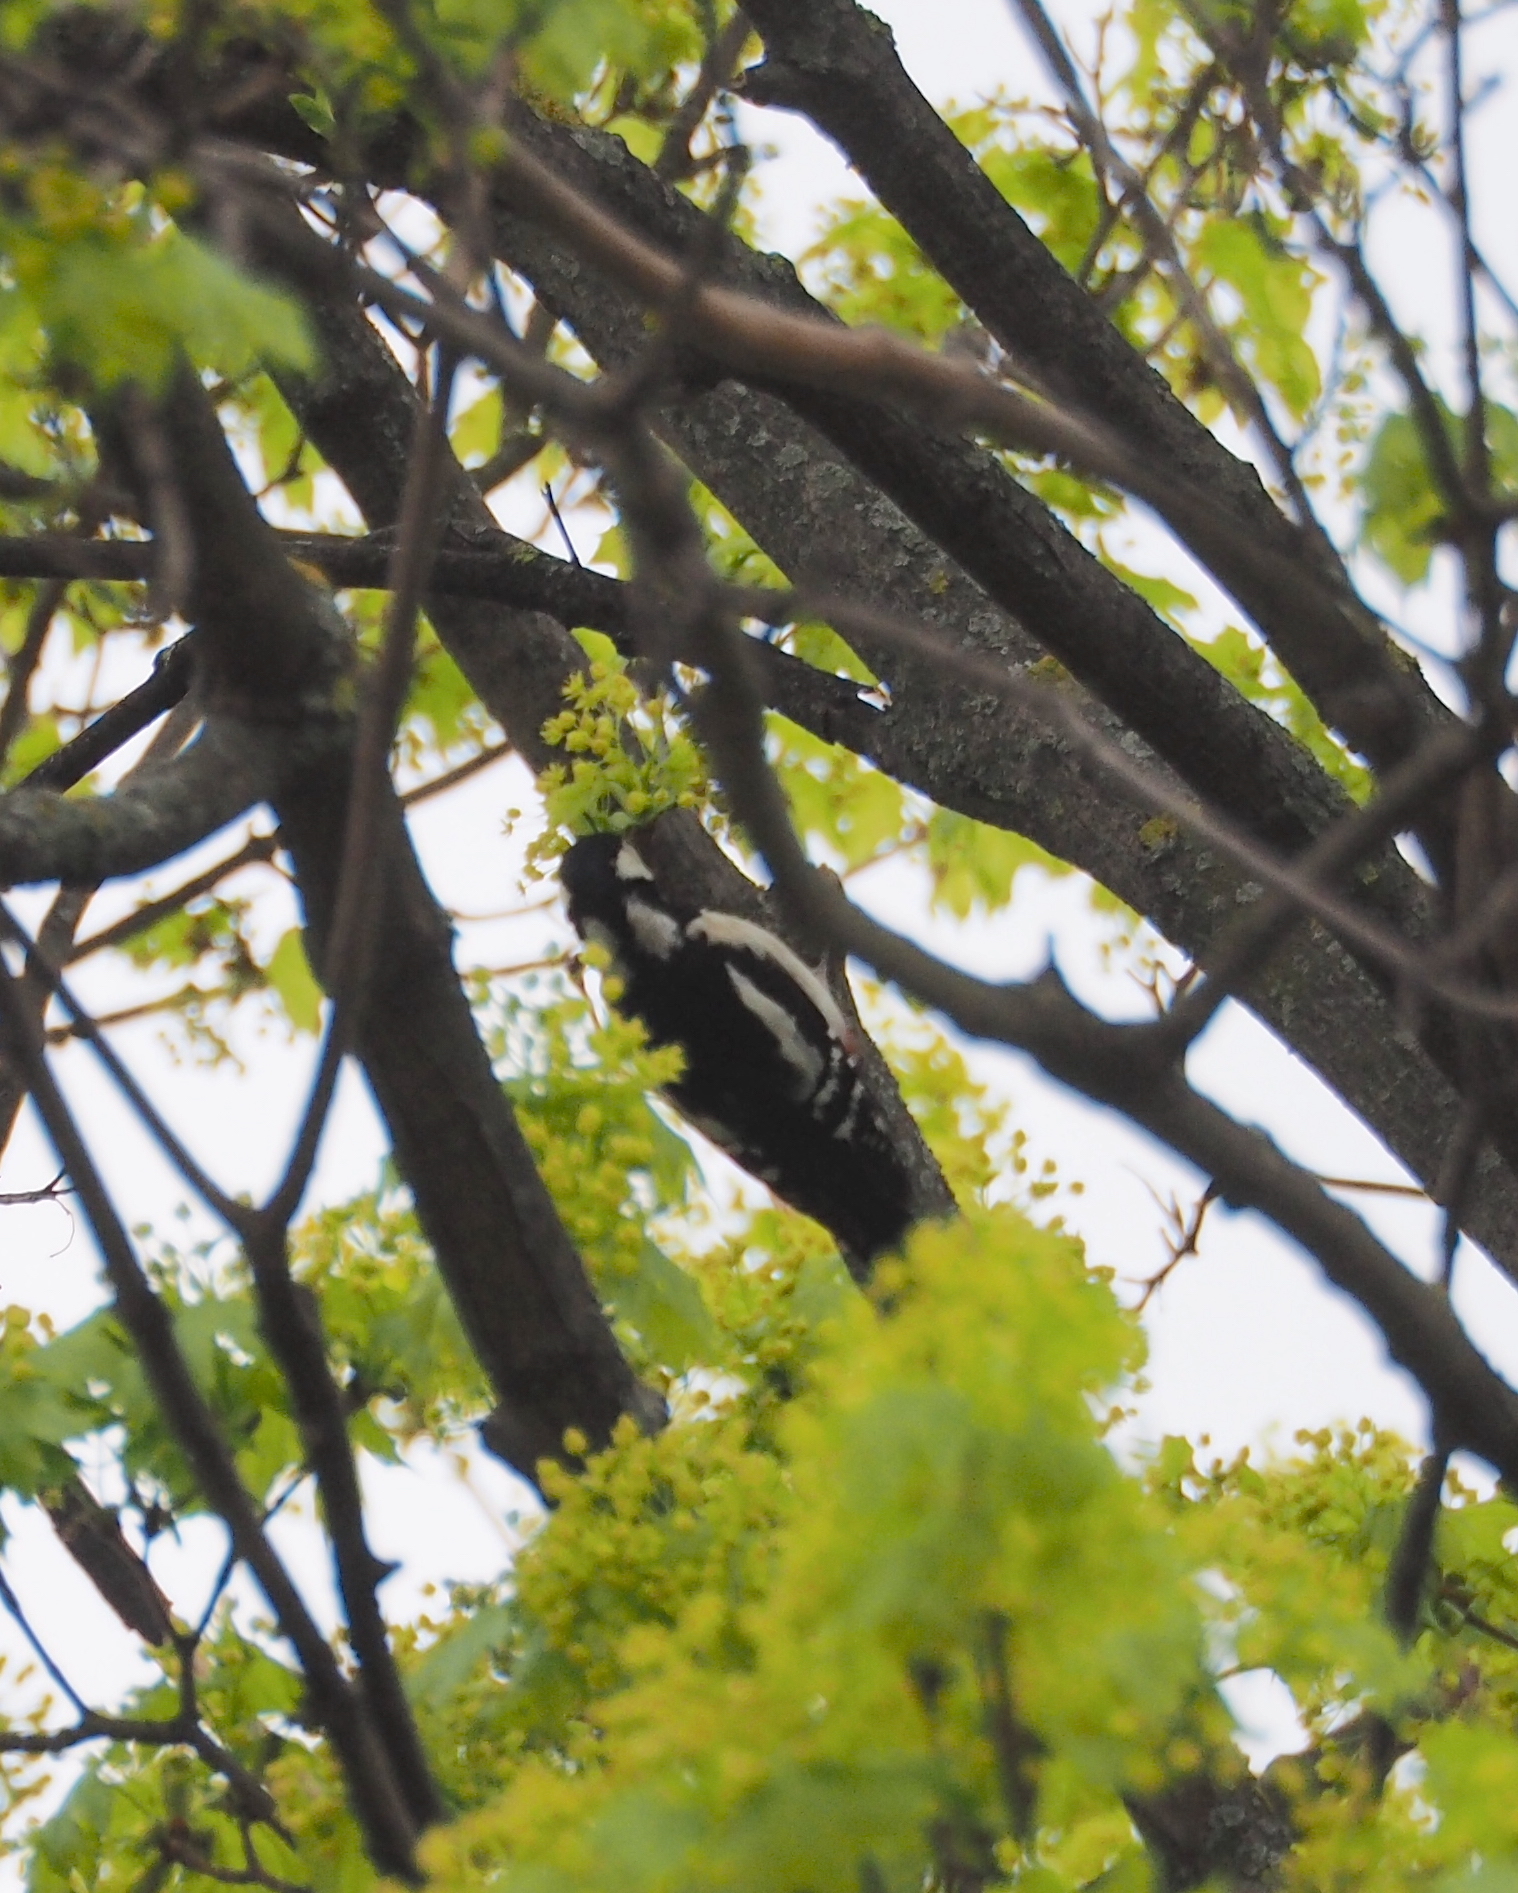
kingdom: Animalia
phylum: Chordata
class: Aves
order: Piciformes
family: Picidae
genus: Dendrocopos
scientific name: Dendrocopos major
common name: Great spotted woodpecker
